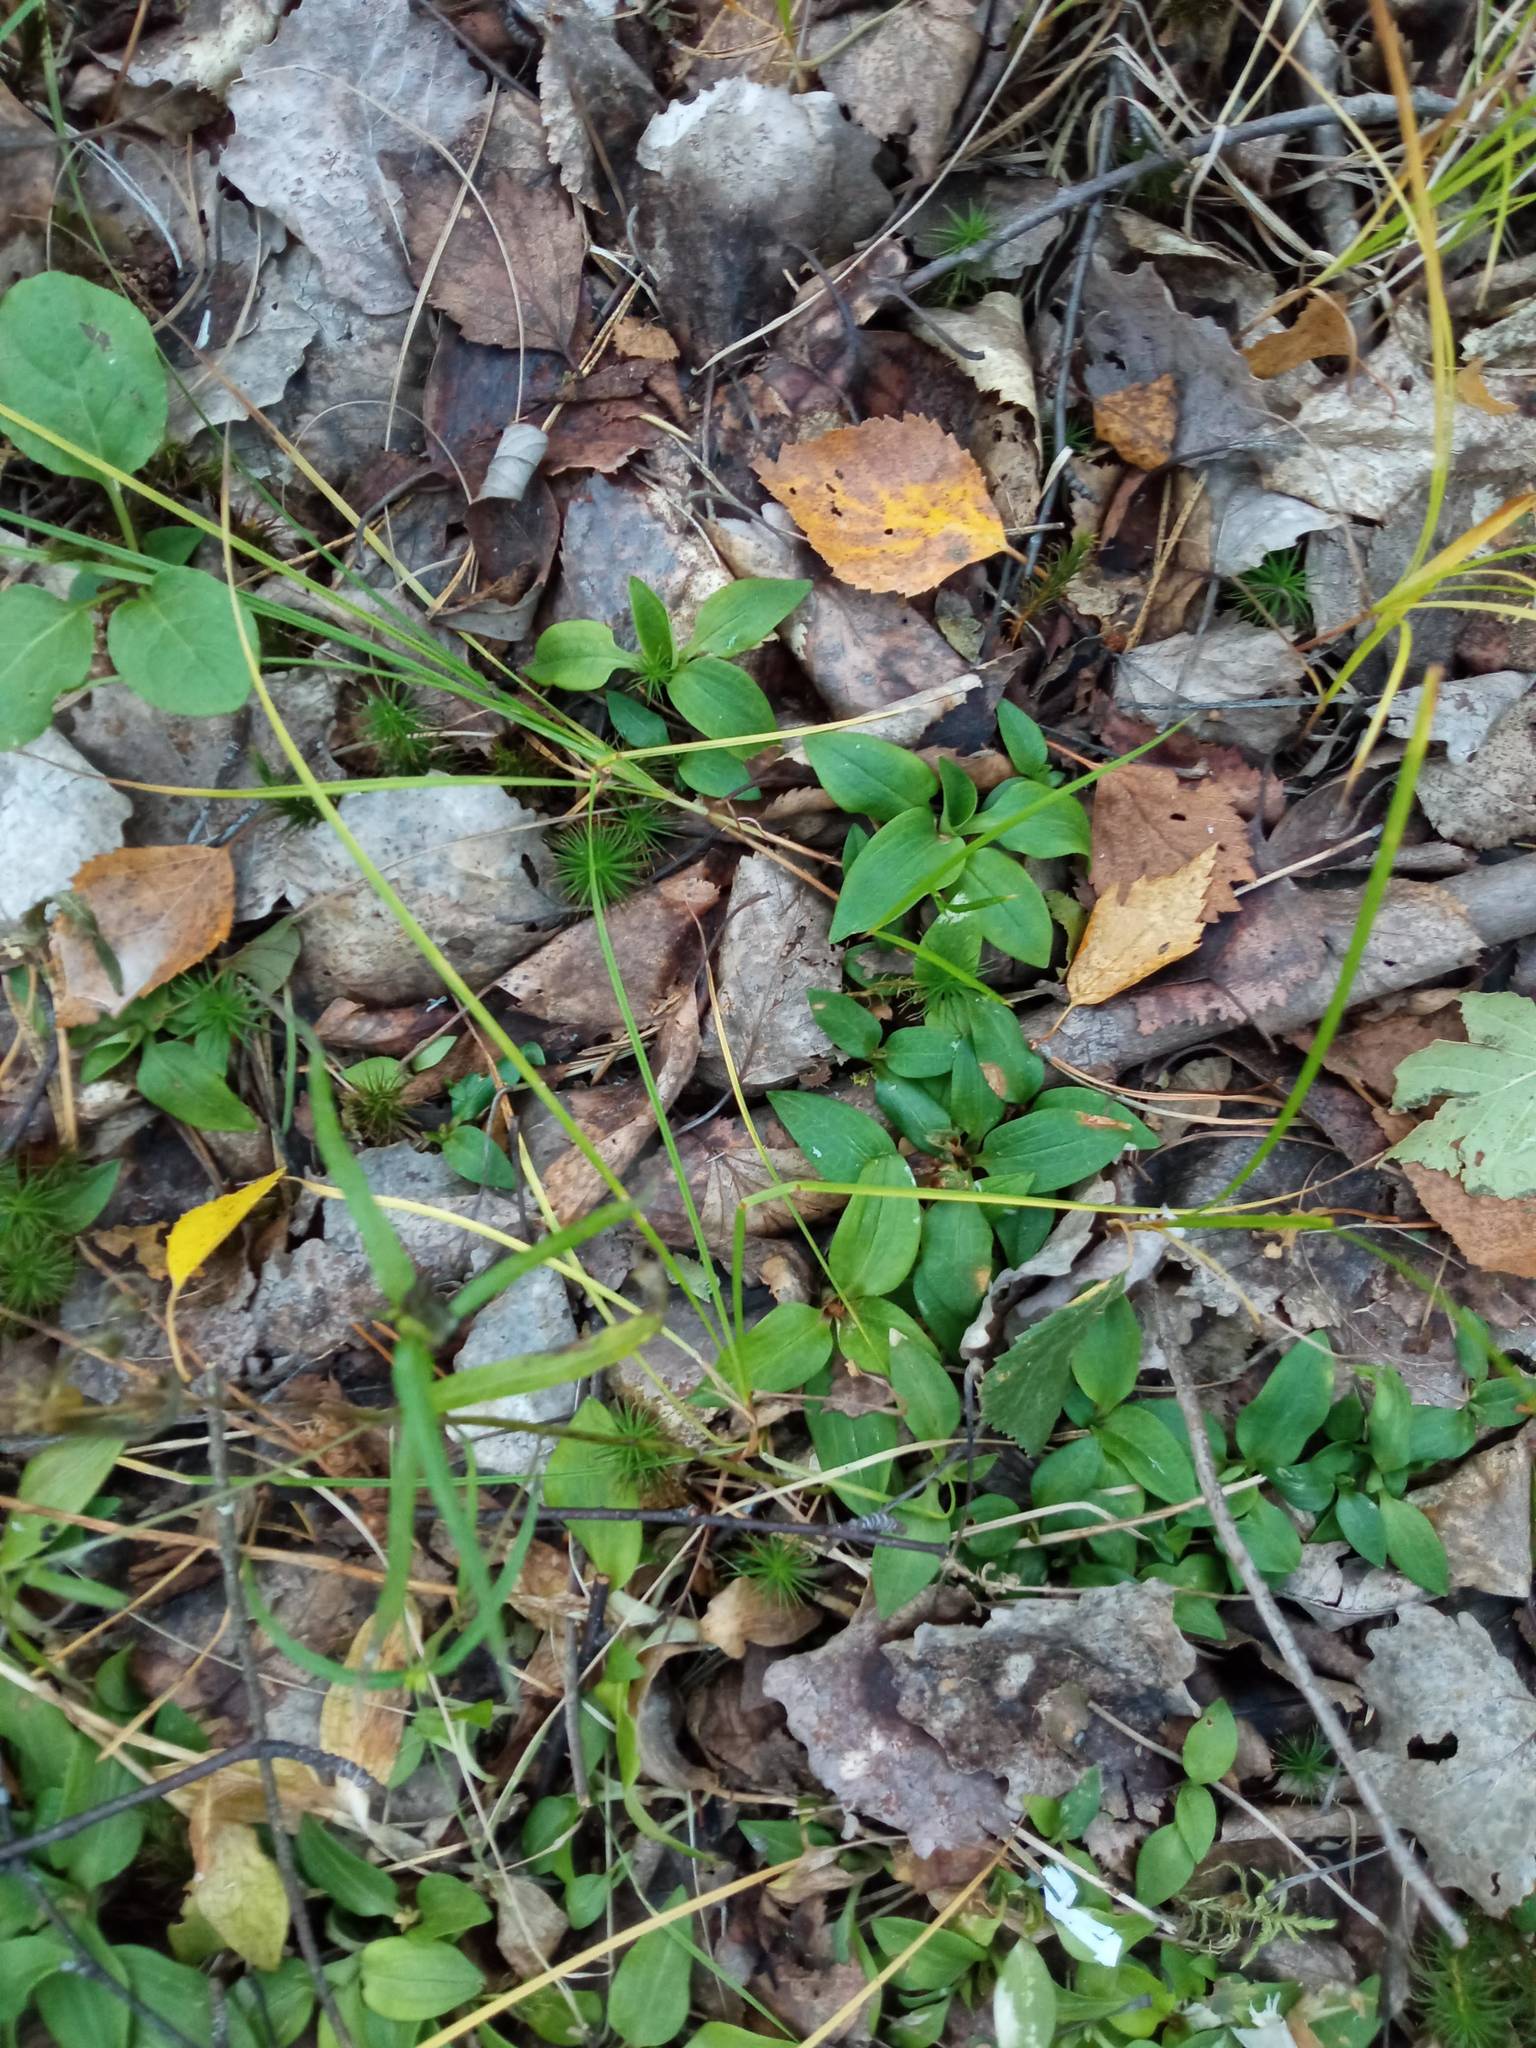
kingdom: Plantae
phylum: Tracheophyta
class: Liliopsida
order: Asparagales
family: Orchidaceae
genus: Goodyera
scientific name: Goodyera repens
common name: Creeping lady's-tresses
